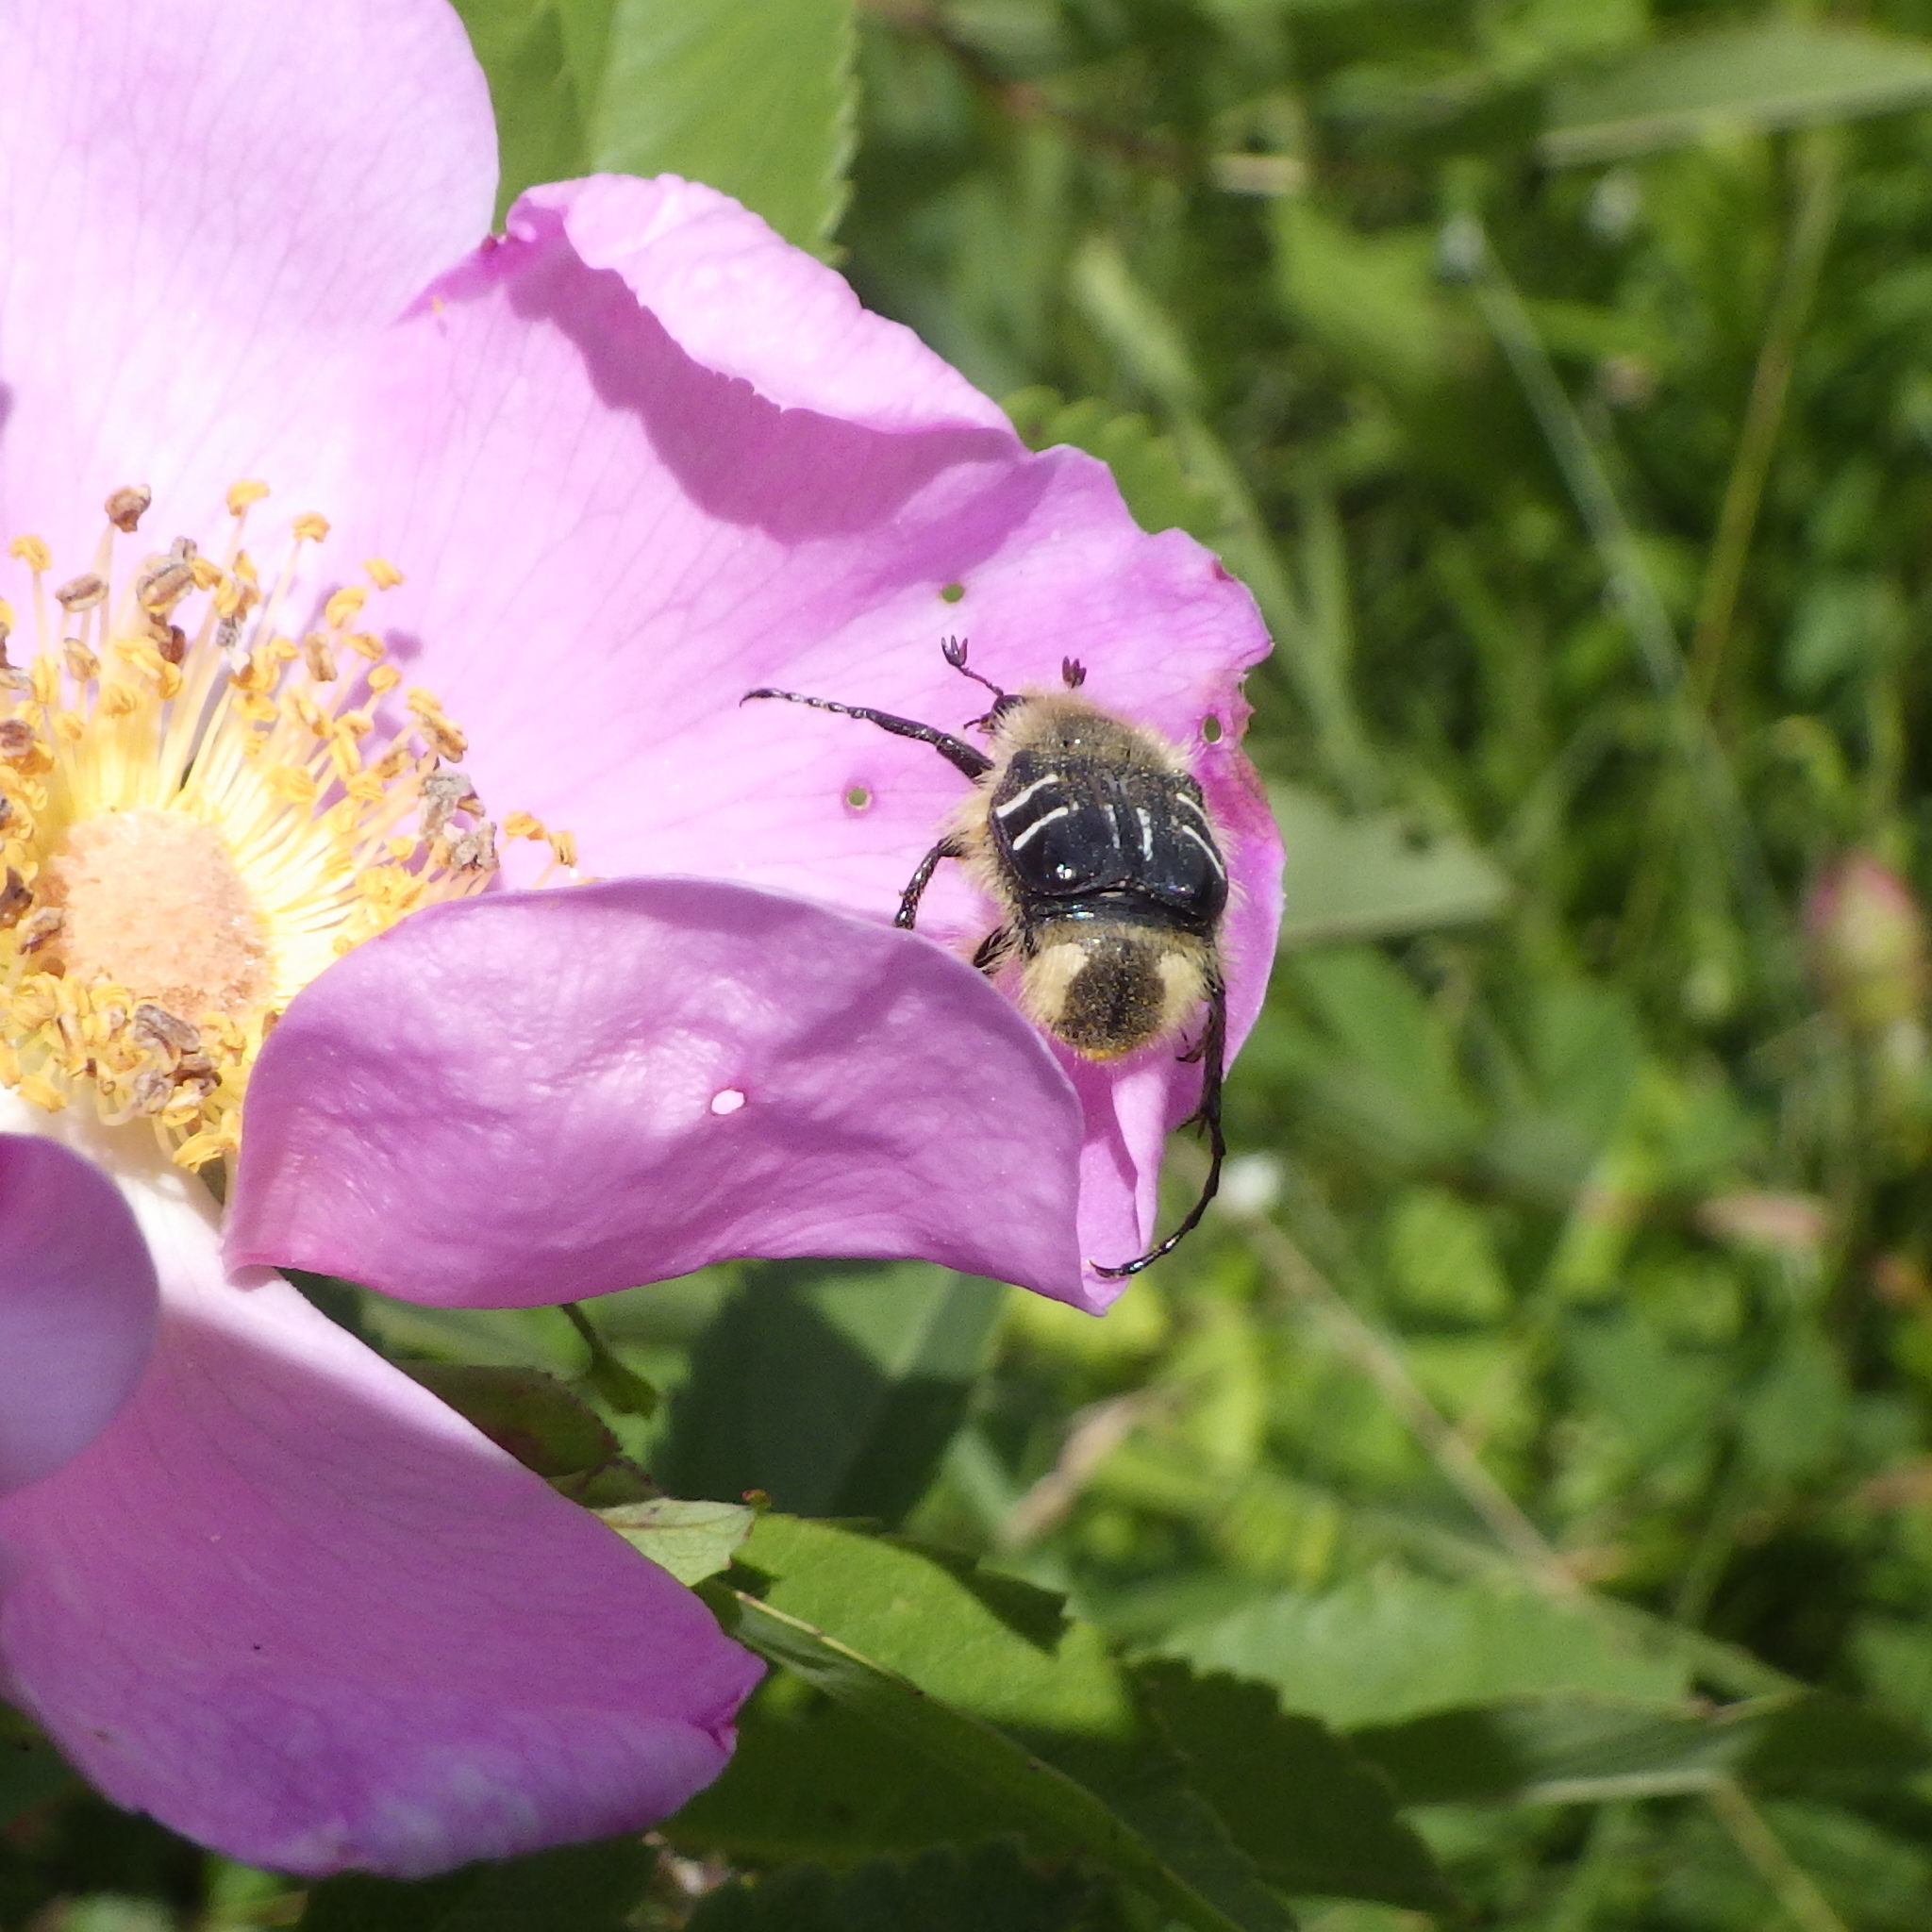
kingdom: Animalia
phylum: Arthropoda
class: Insecta
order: Coleoptera
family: Scarabaeidae
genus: Trichiotinus
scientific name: Trichiotinus assimilis
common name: Bee-mimic beetle
